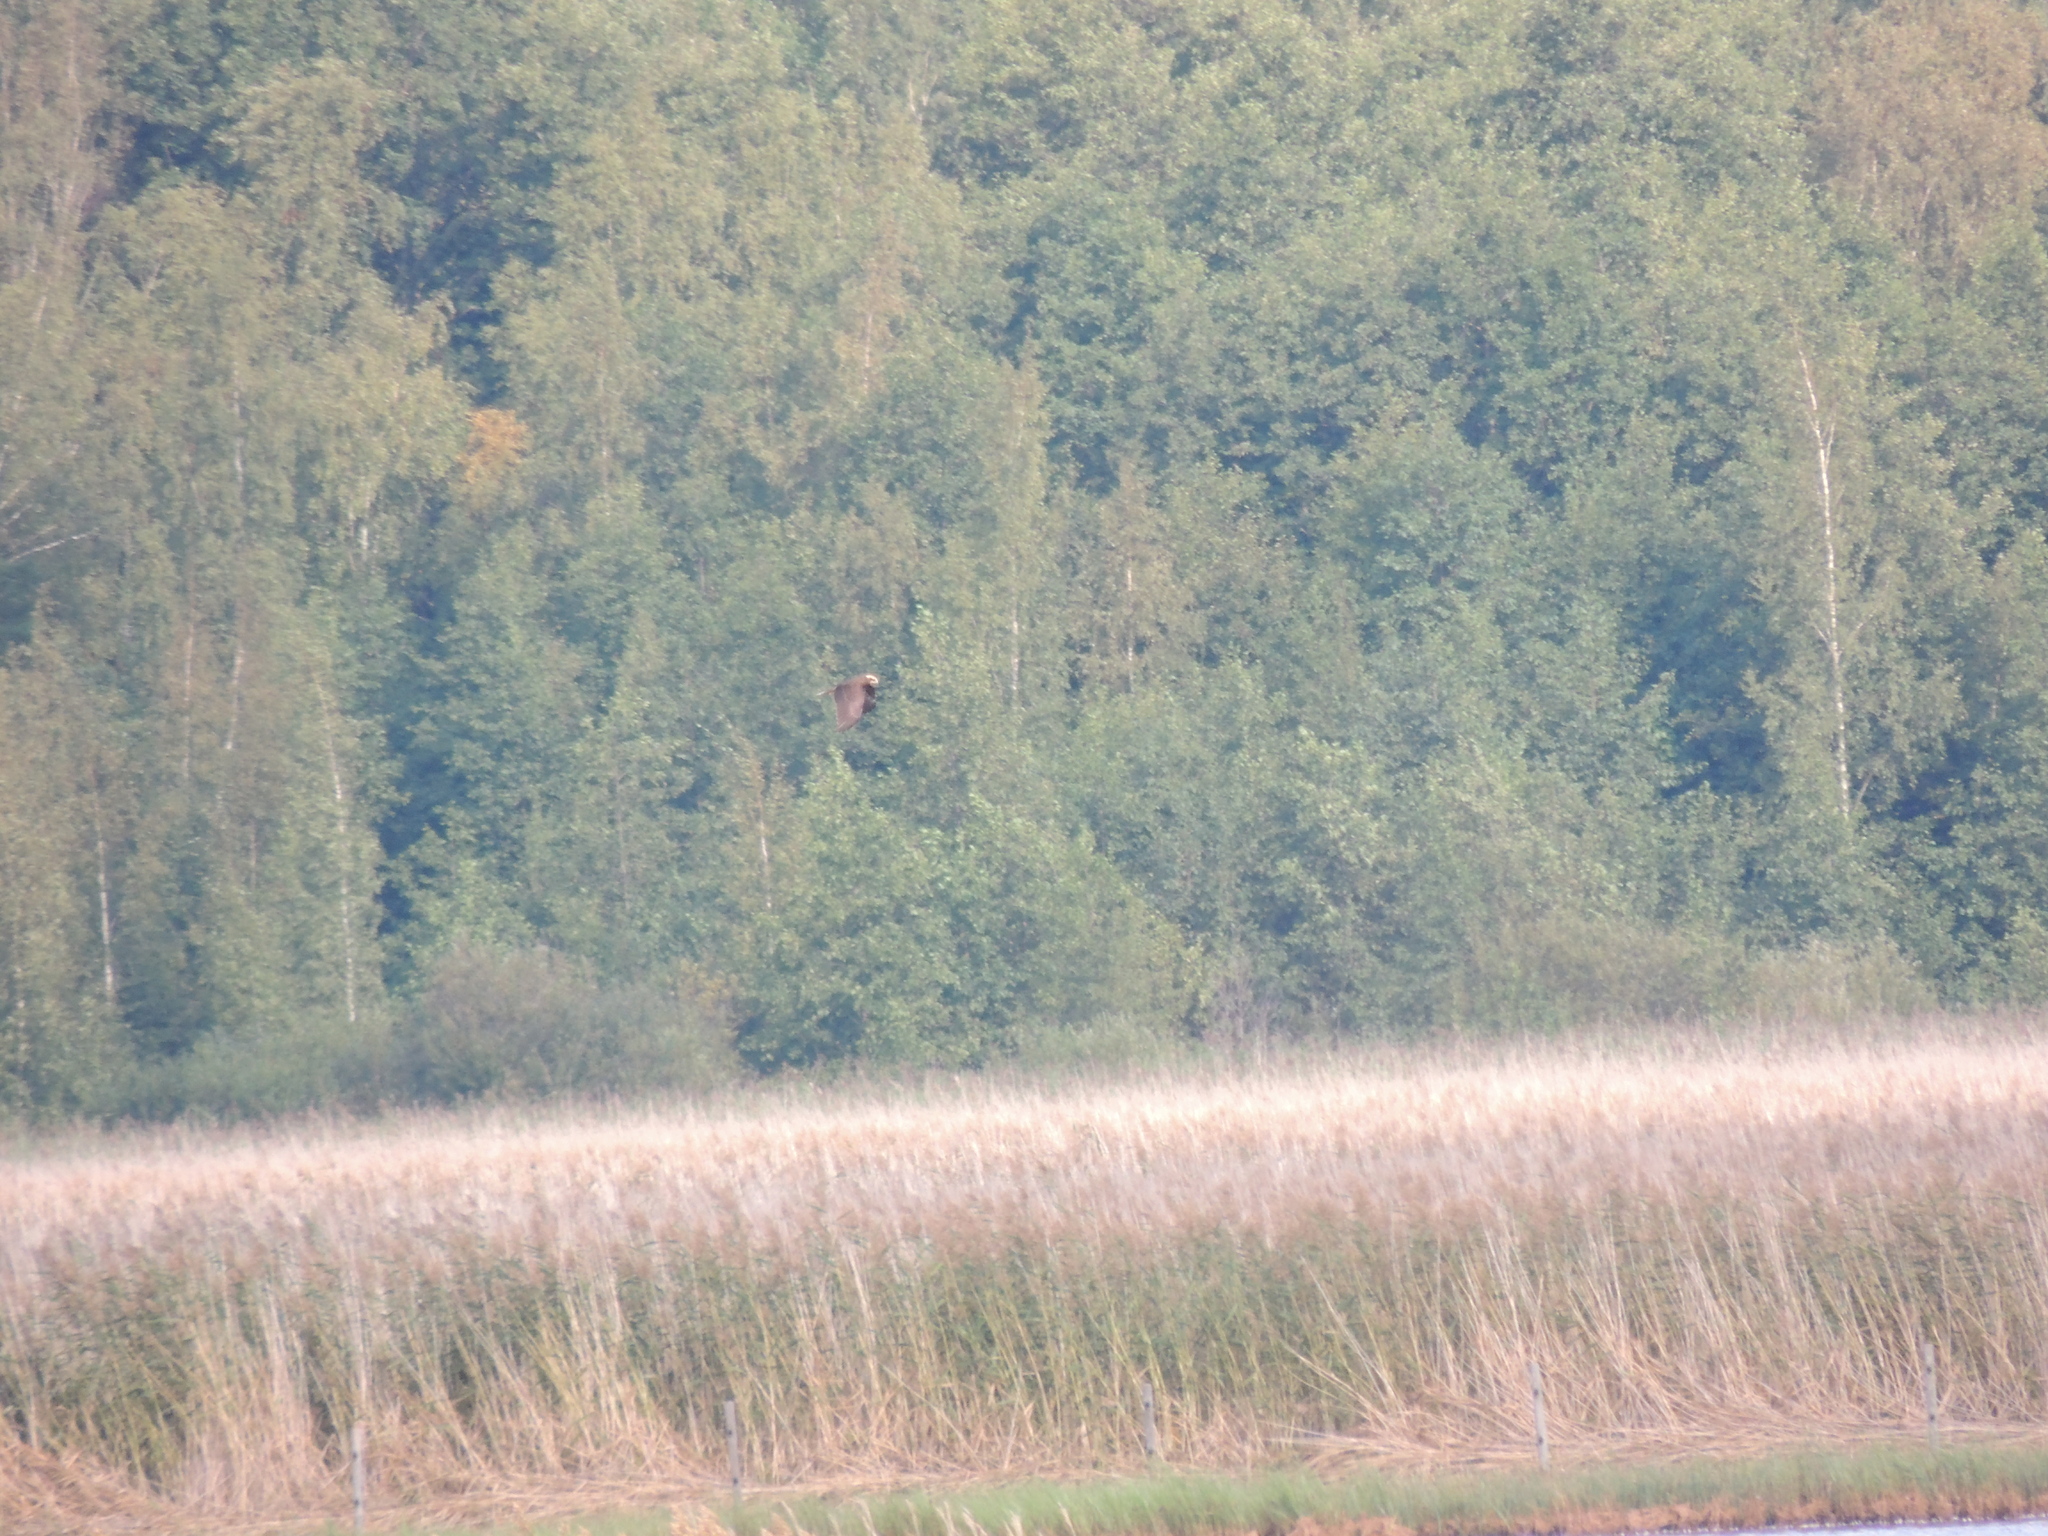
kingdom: Animalia
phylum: Chordata
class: Aves
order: Accipitriformes
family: Accipitridae
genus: Circus
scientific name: Circus aeruginosus
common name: Western marsh harrier
